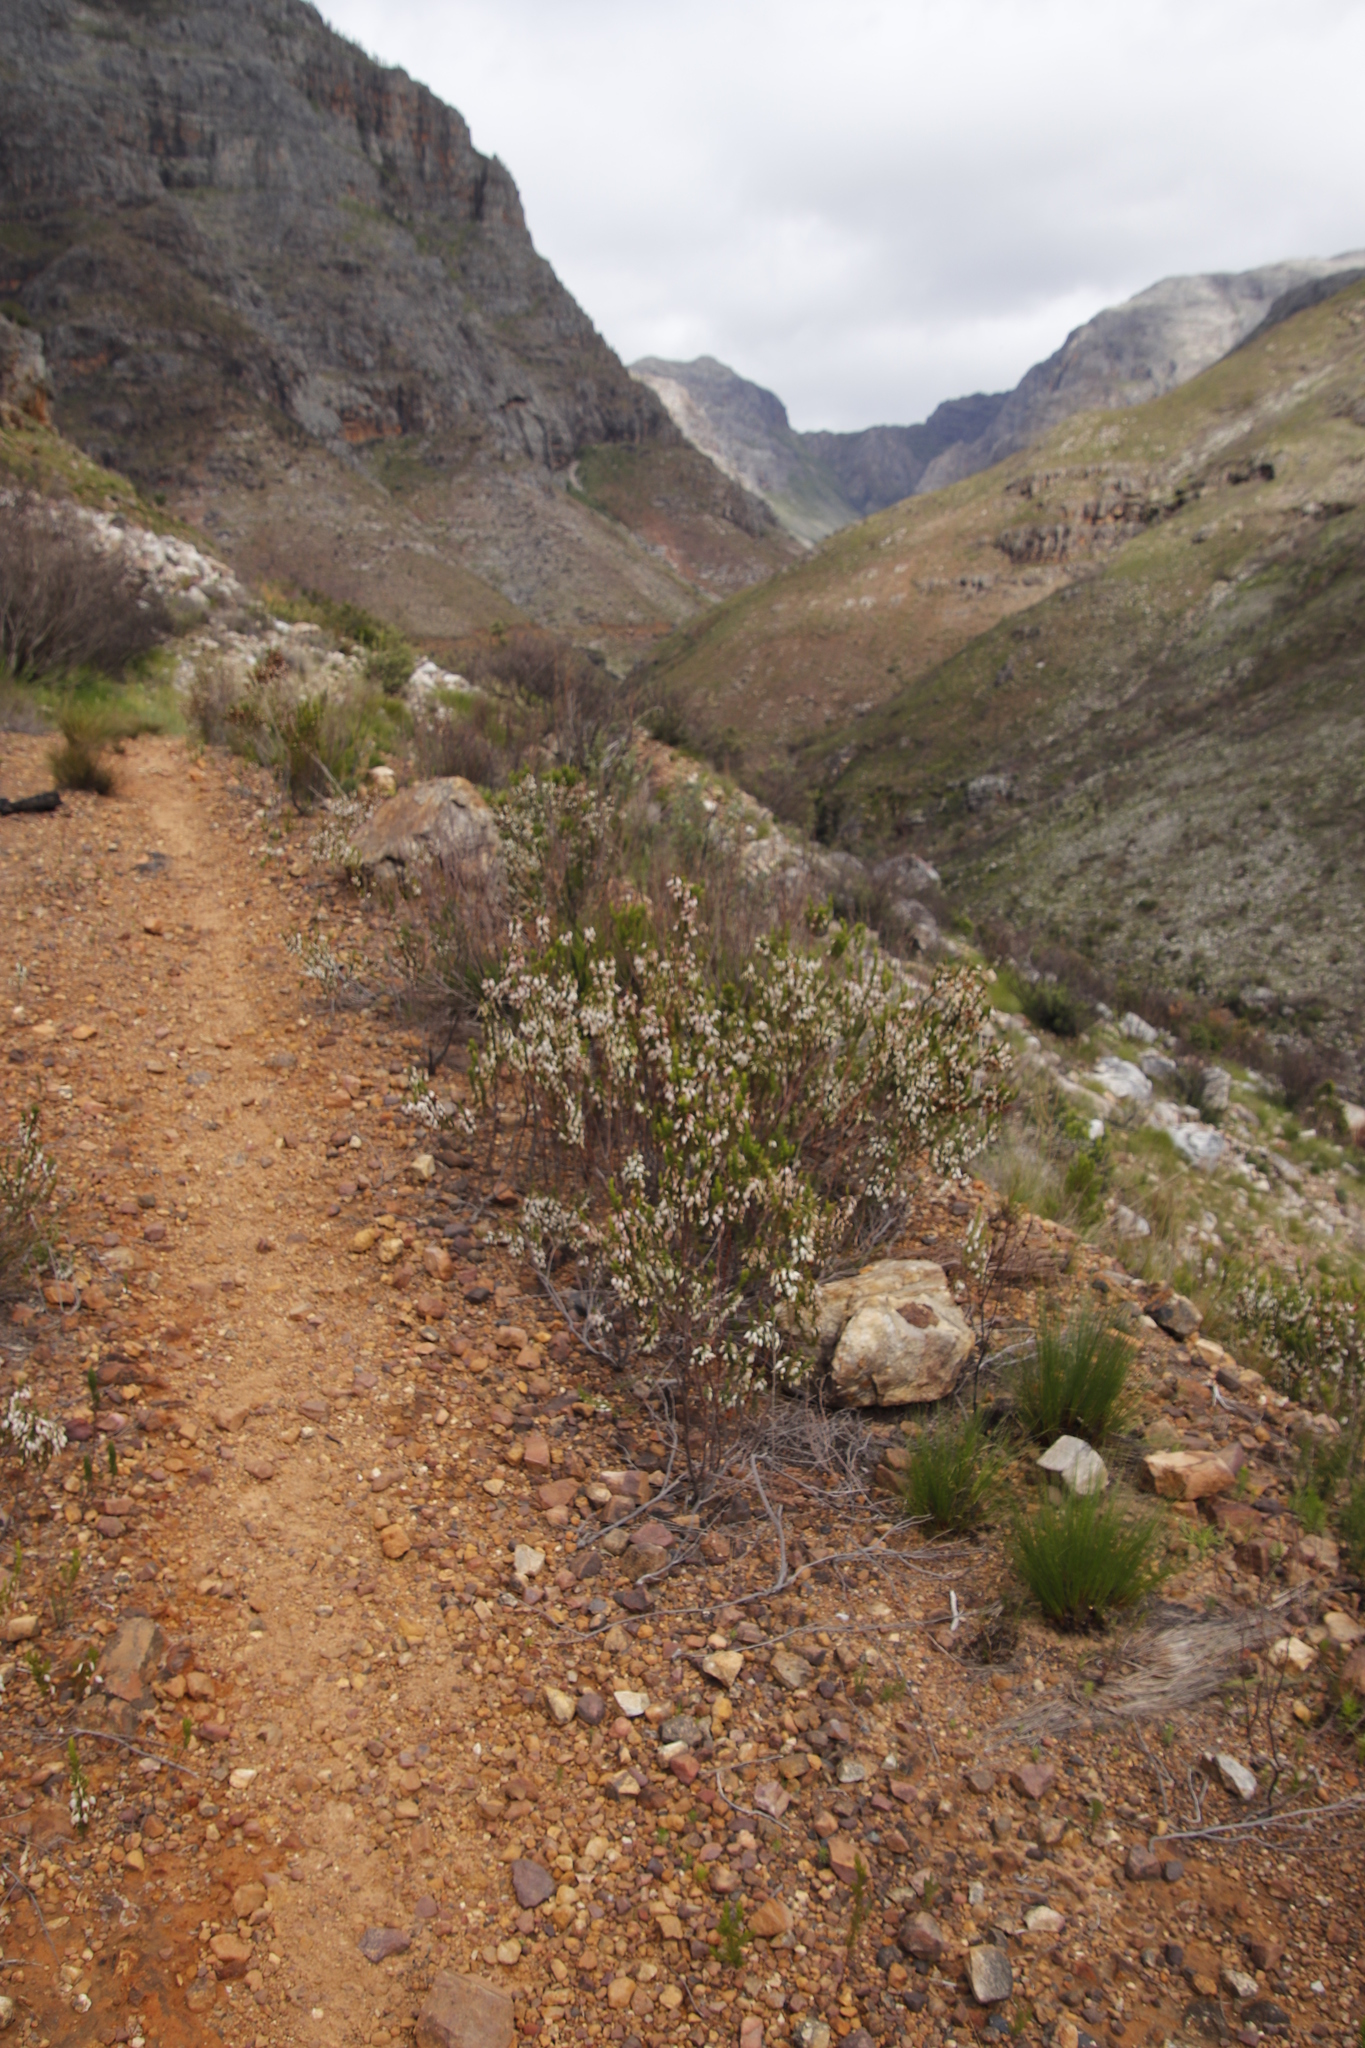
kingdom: Plantae
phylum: Tracheophyta
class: Magnoliopsida
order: Ericales
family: Ericaceae
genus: Erica
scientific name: Erica plukenetii
